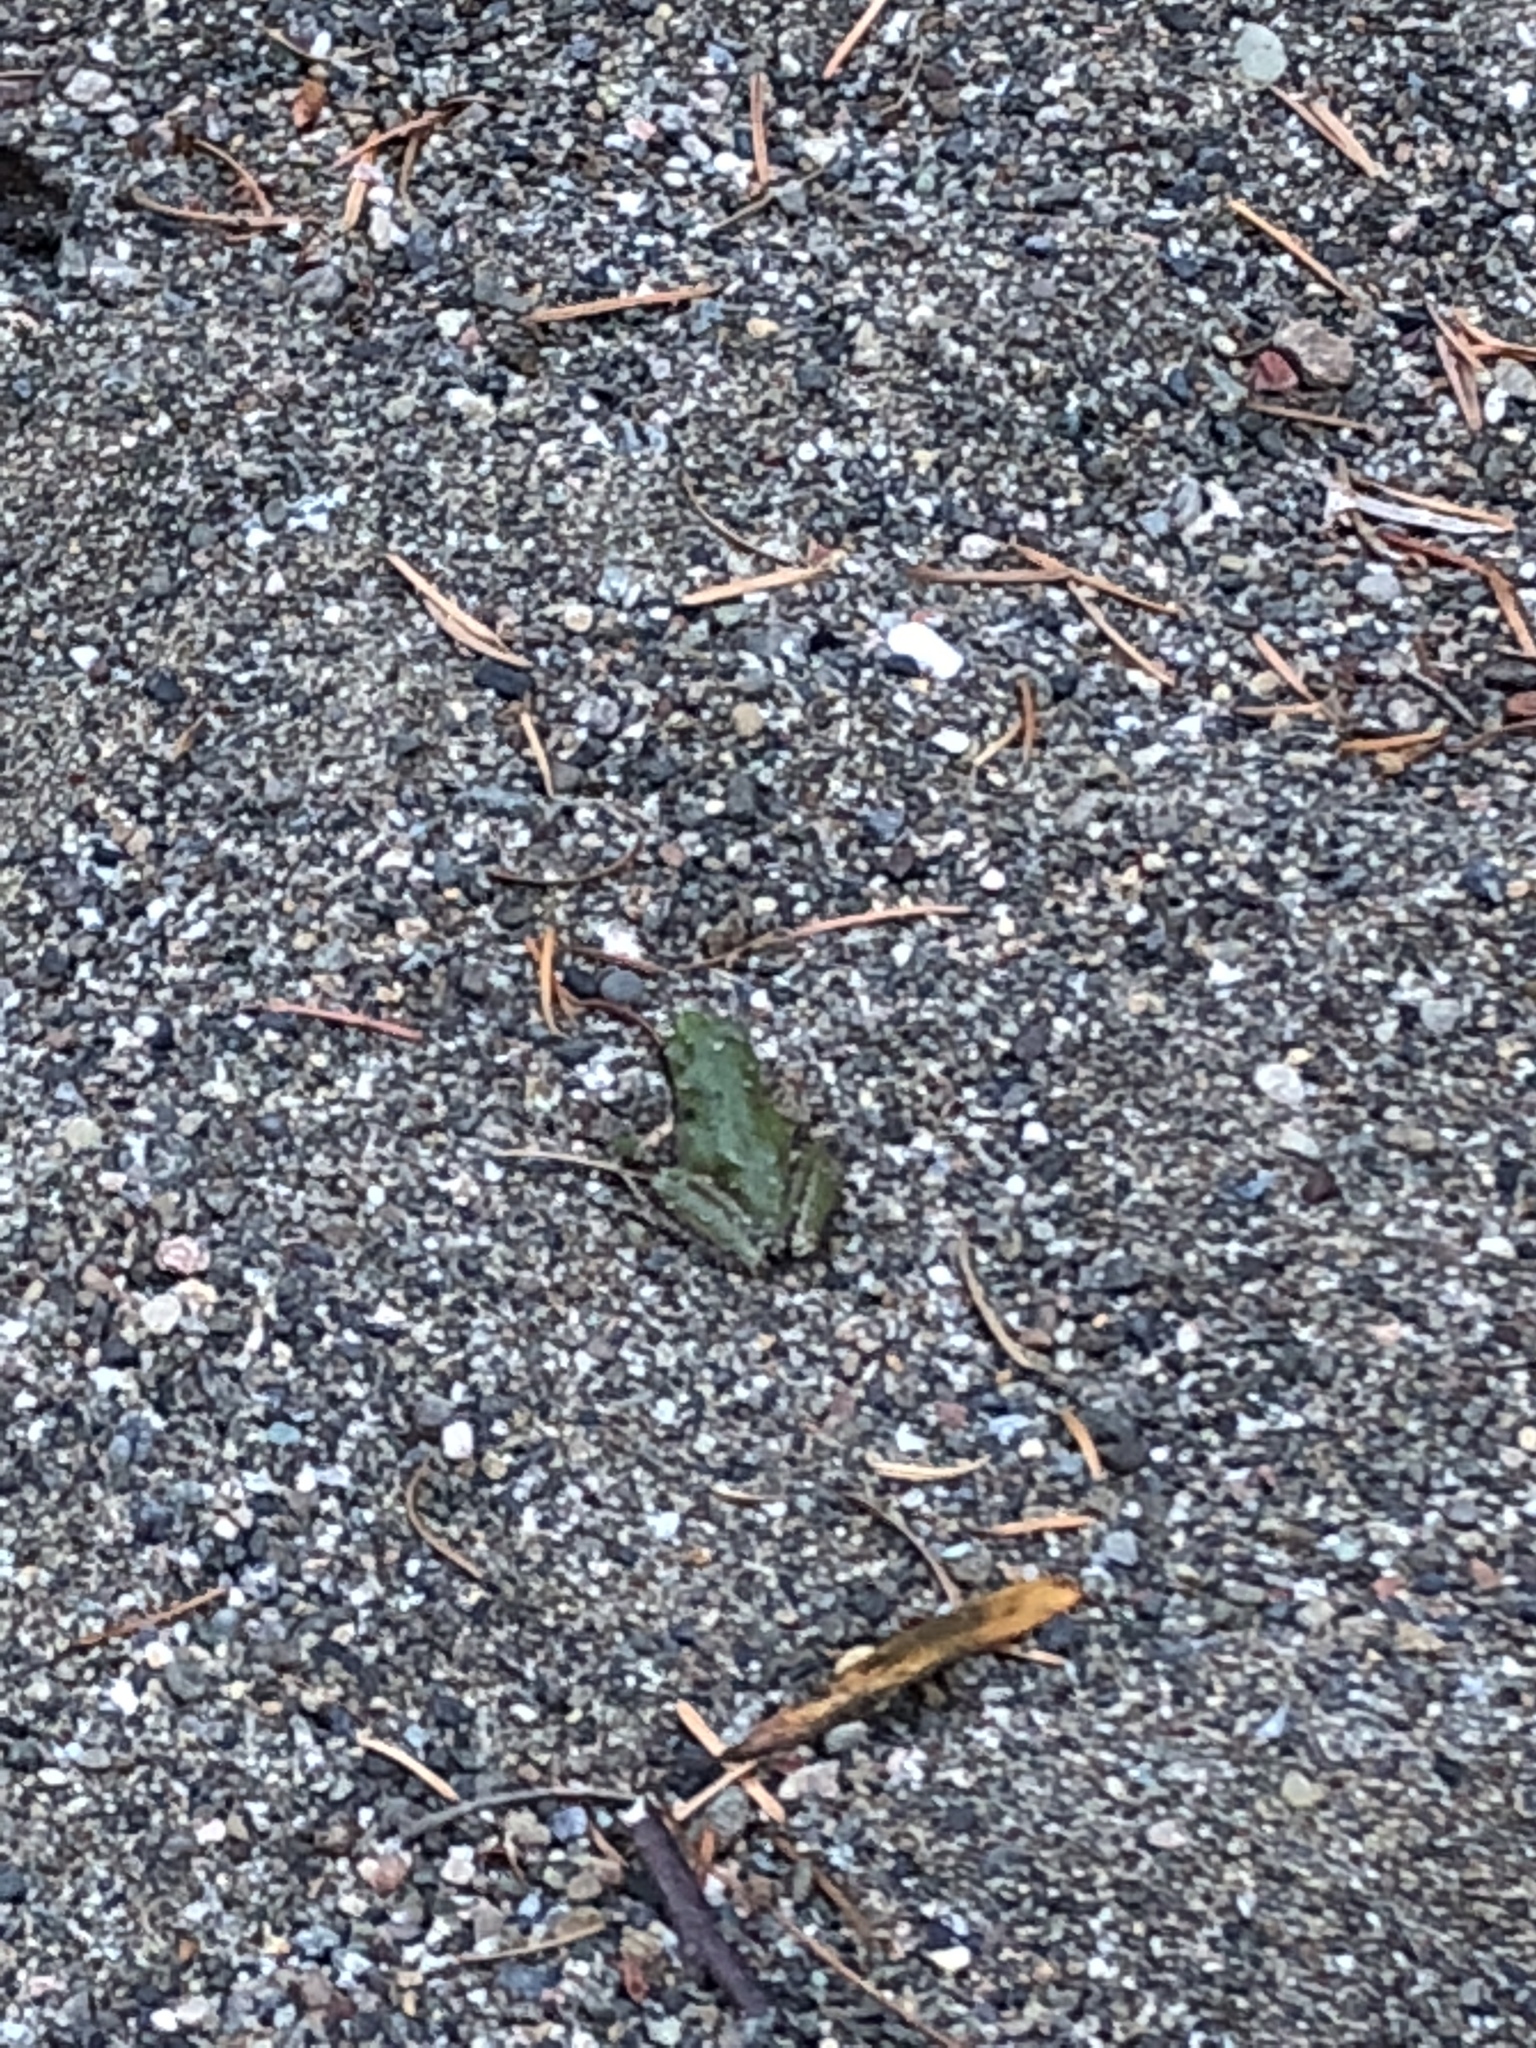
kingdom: Animalia
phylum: Chordata
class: Amphibia
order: Anura
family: Hylidae
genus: Pseudacris
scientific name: Pseudacris regilla
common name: Pacific chorus frog
